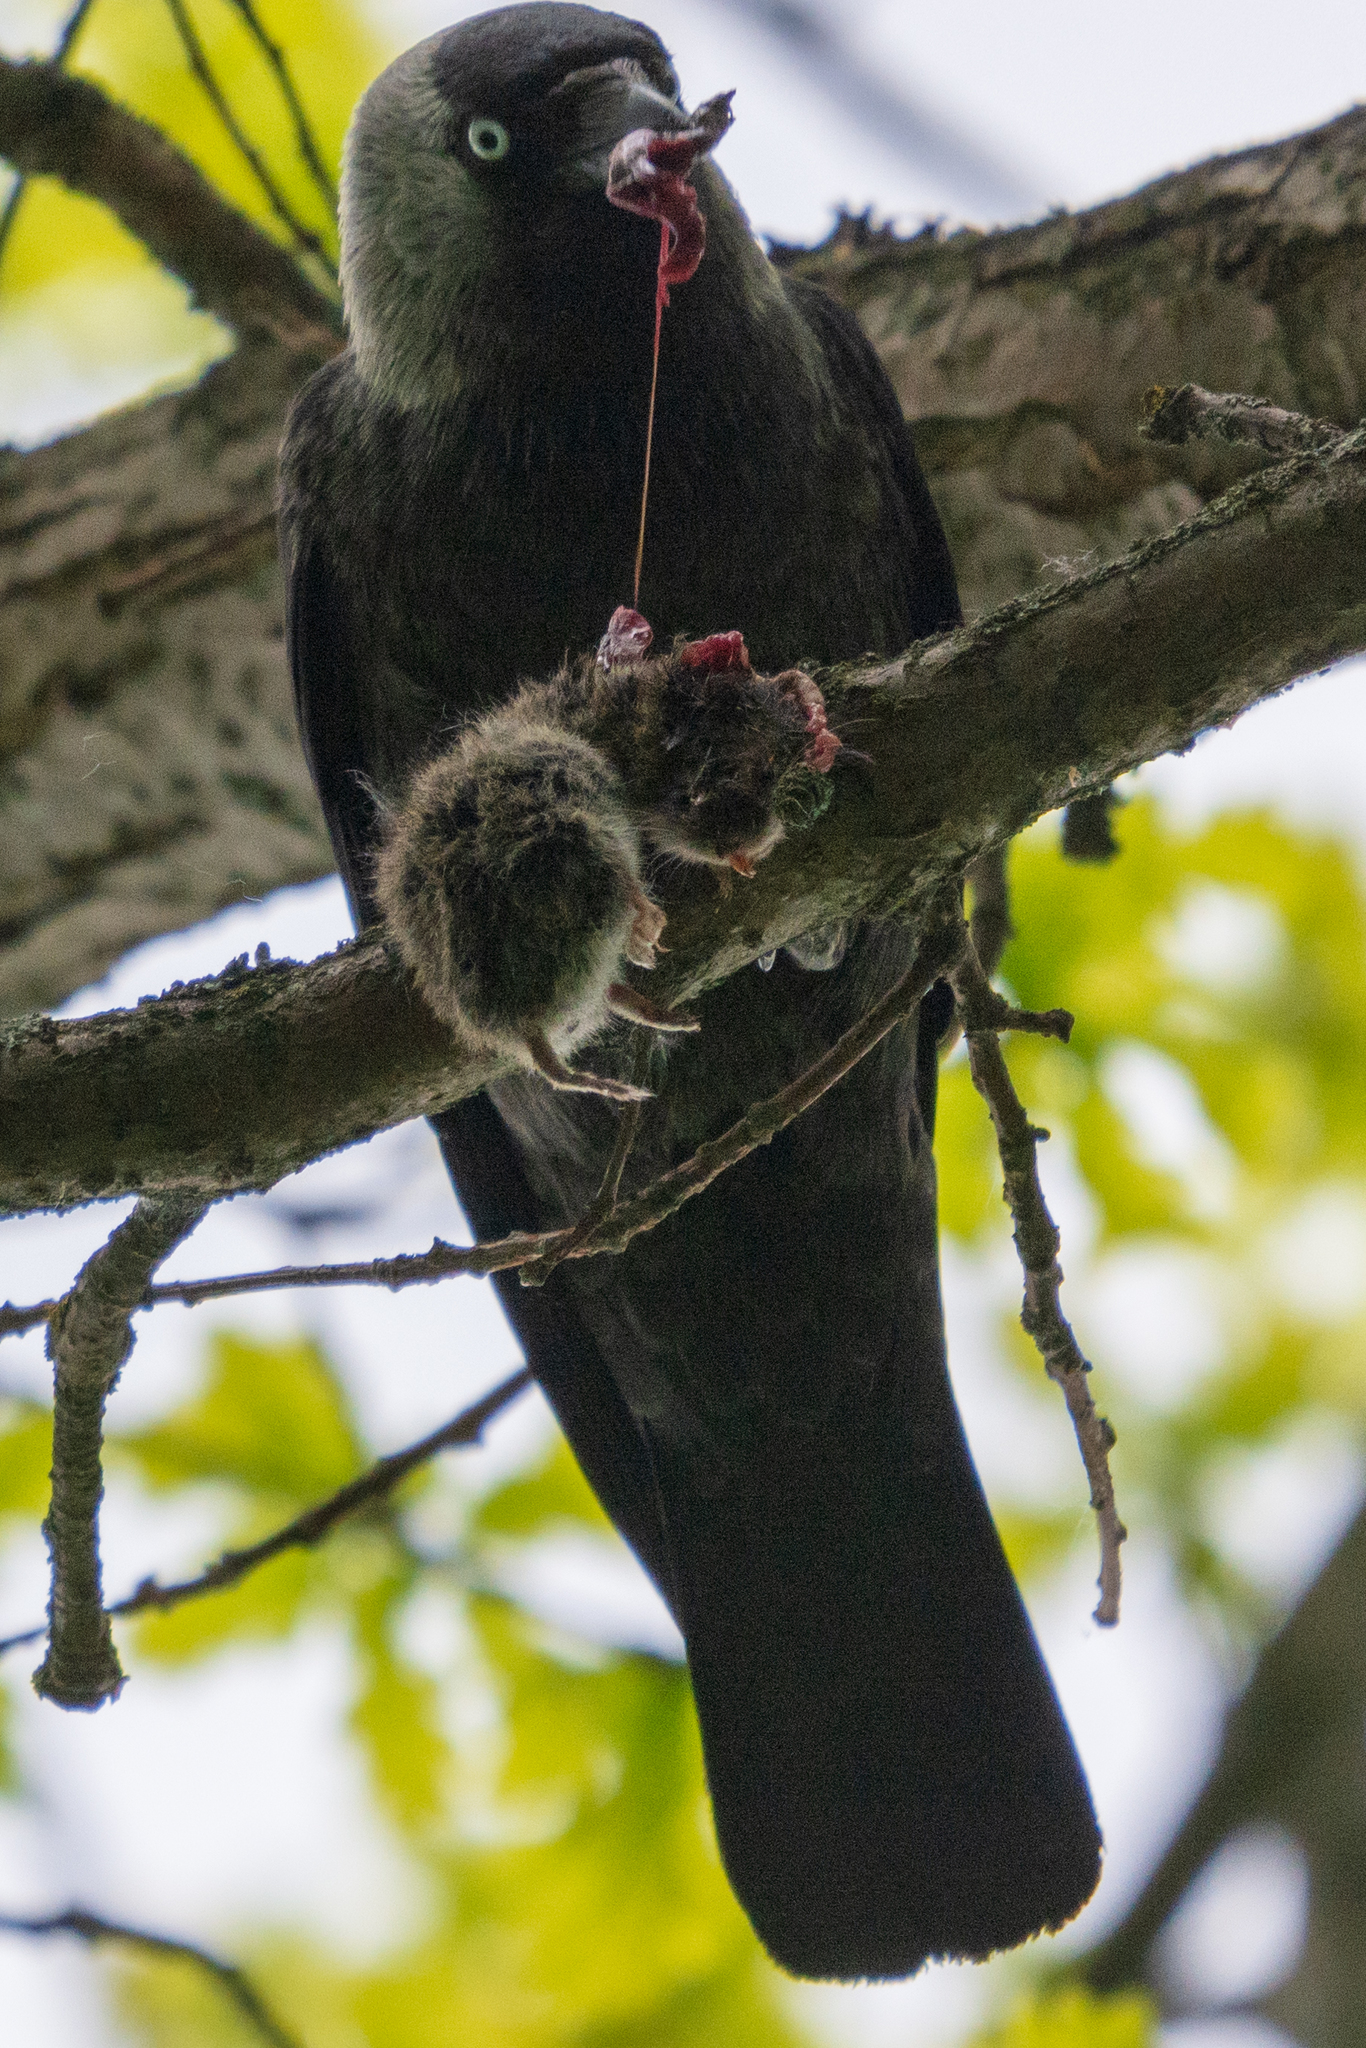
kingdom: Animalia
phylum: Chordata
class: Aves
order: Passeriformes
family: Corvidae
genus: Coloeus
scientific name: Coloeus monedula
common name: Western jackdaw
